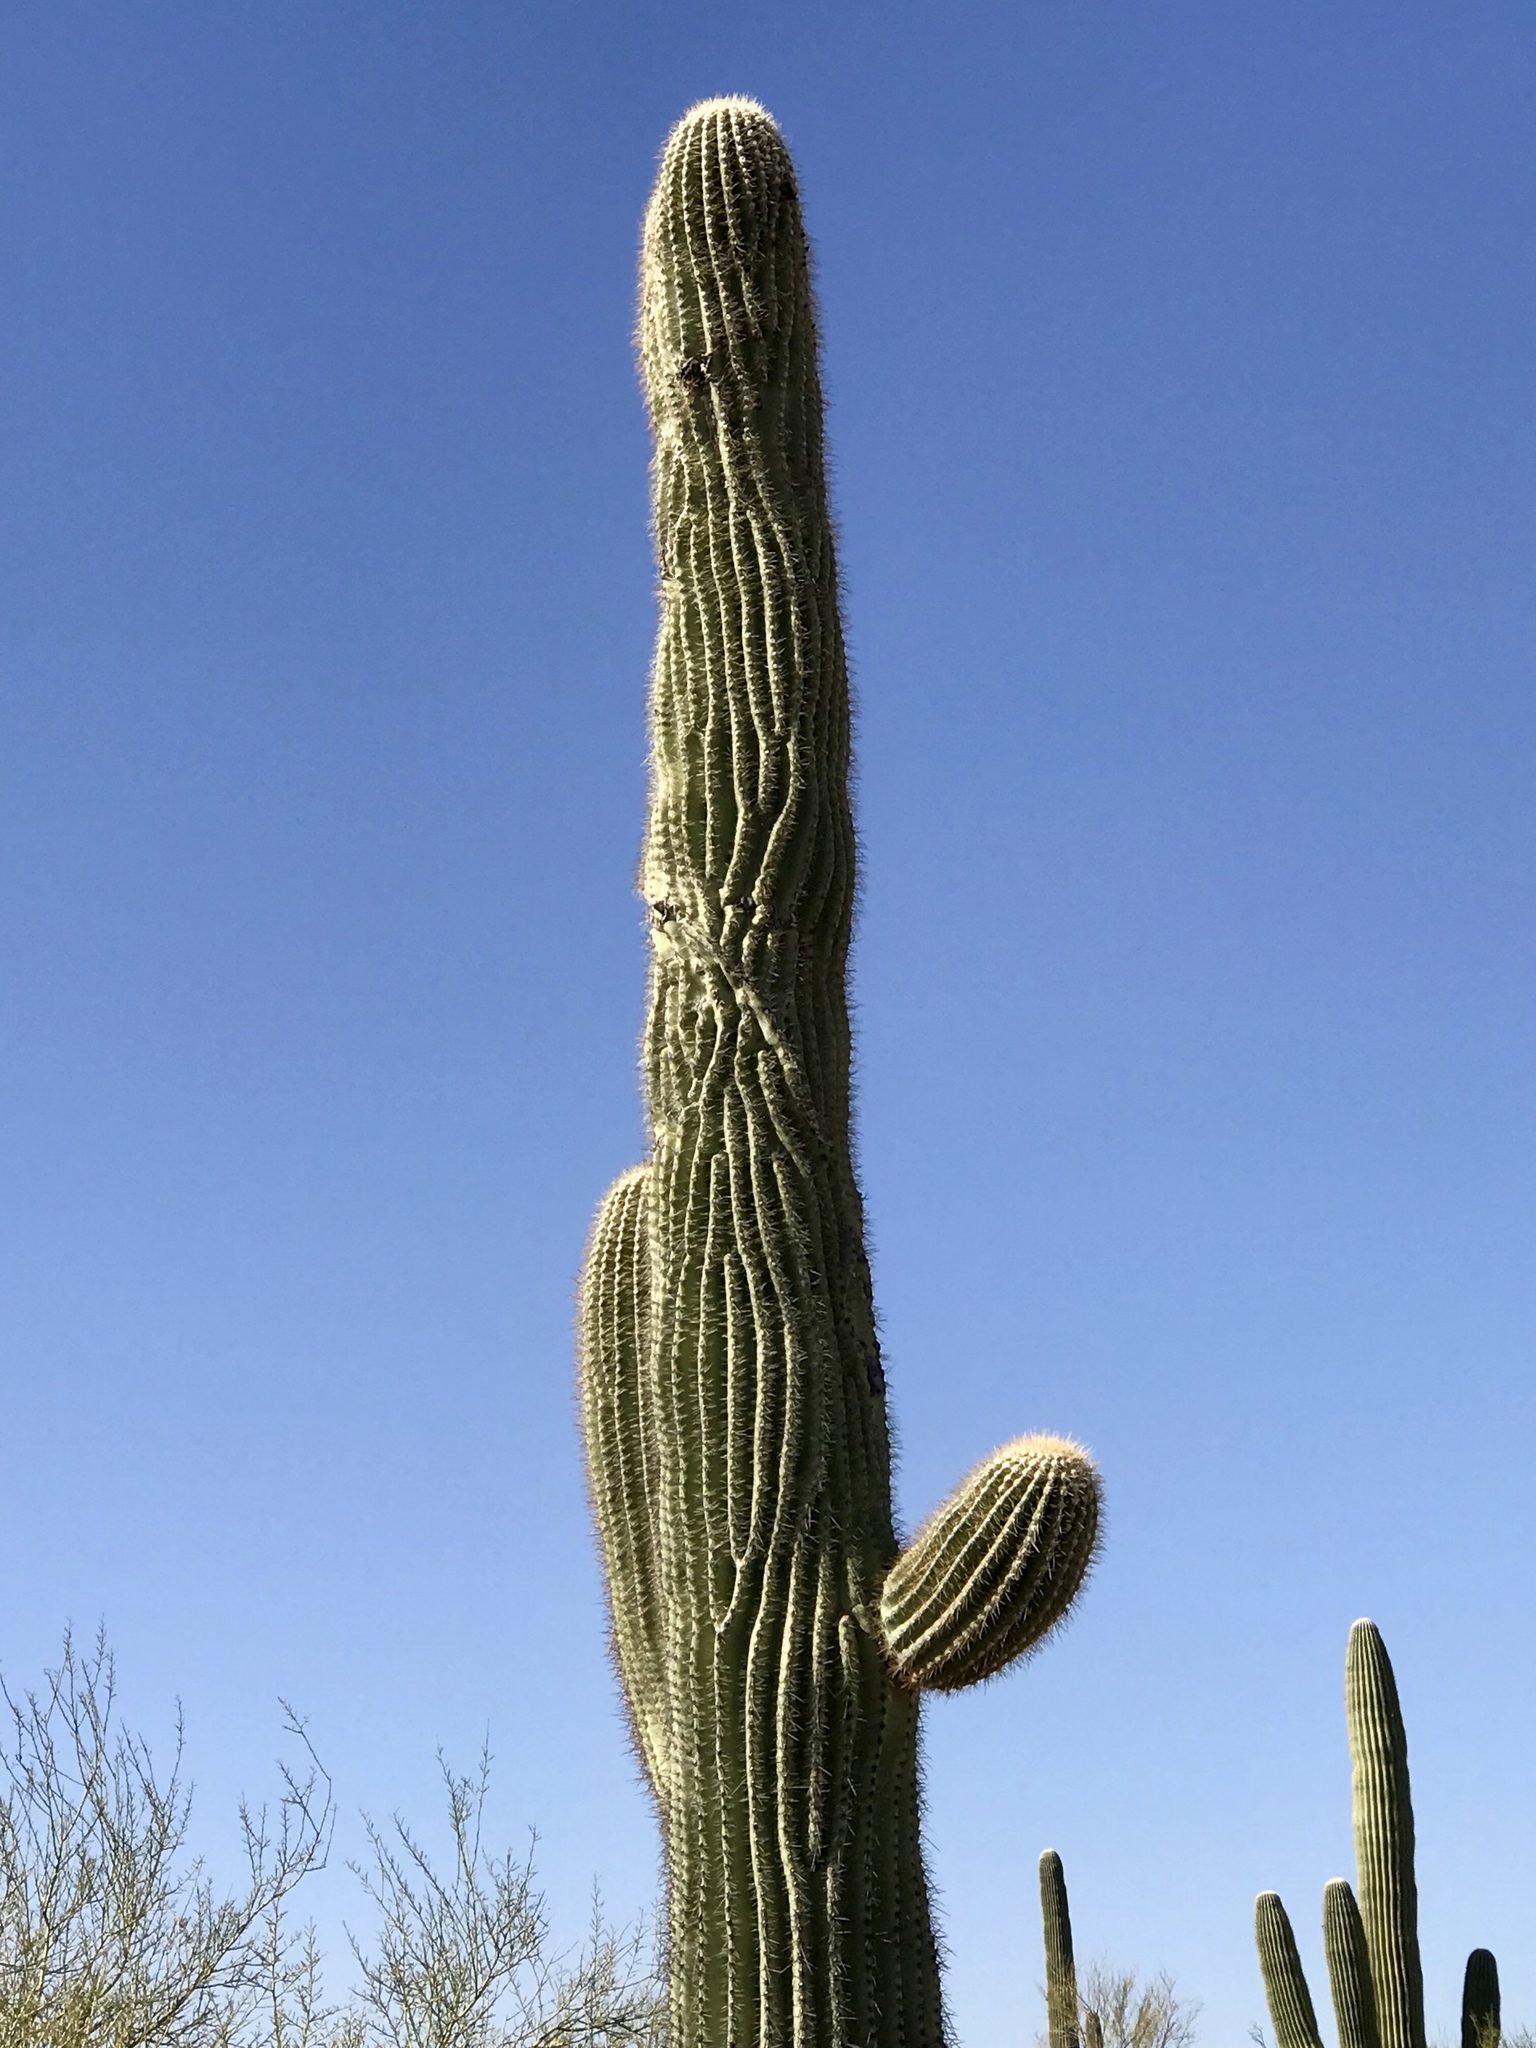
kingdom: Plantae
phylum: Tracheophyta
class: Magnoliopsida
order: Caryophyllales
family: Cactaceae
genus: Carnegiea
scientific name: Carnegiea gigantea
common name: Saguaro
